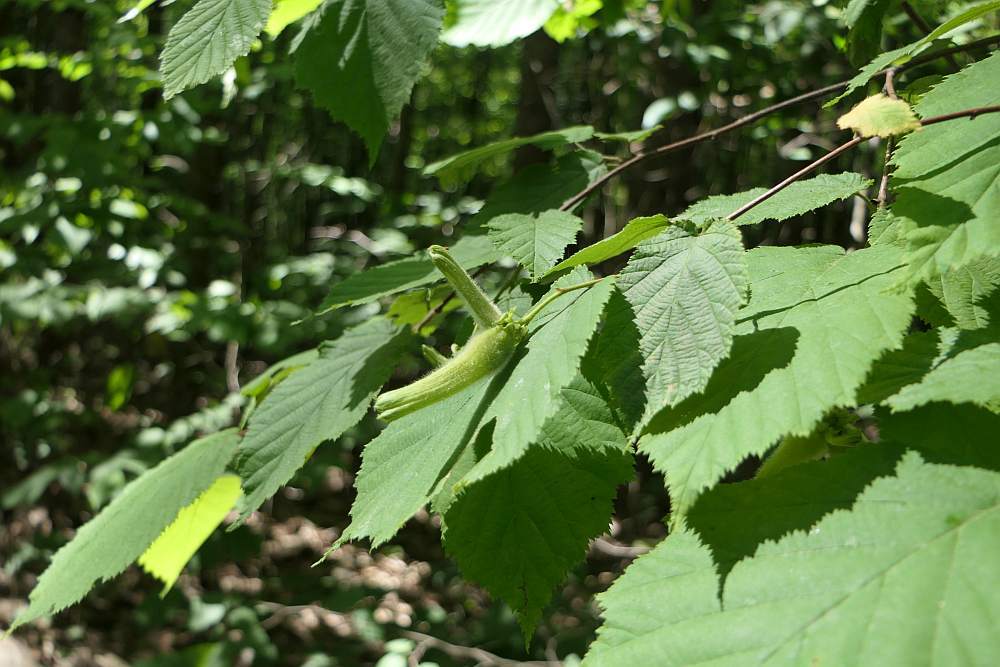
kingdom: Plantae
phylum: Tracheophyta
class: Magnoliopsida
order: Fagales
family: Betulaceae
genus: Corylus
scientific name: Corylus cornuta
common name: Beaked hazel
